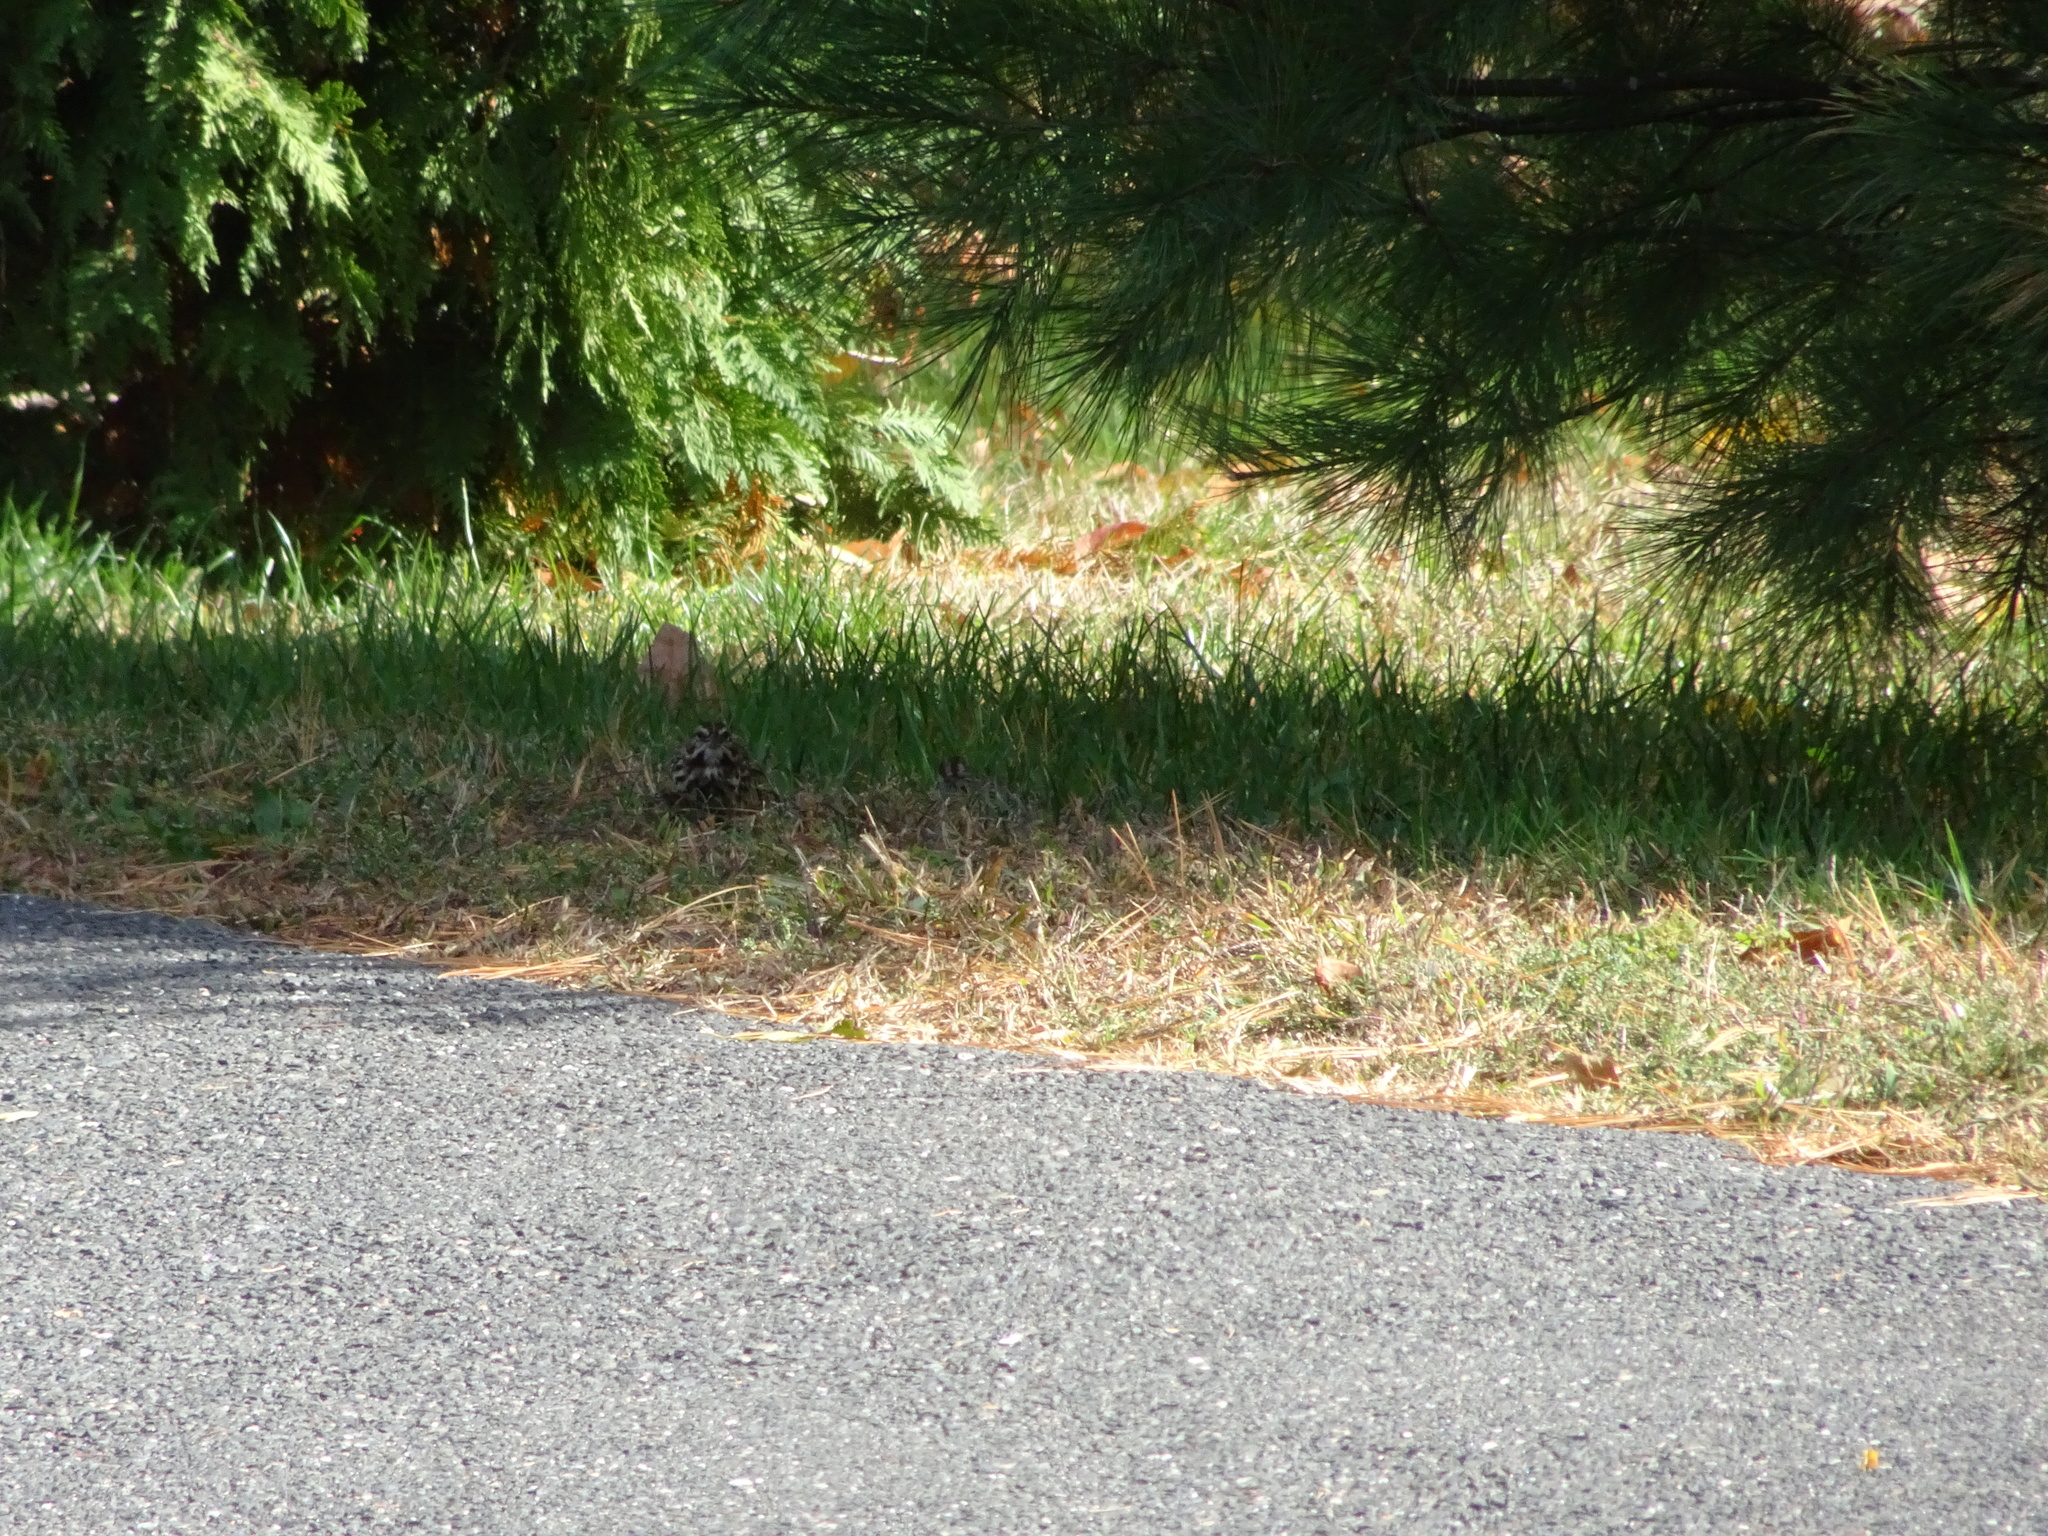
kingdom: Animalia
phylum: Chordata
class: Aves
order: Passeriformes
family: Passerellidae
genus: Melospiza
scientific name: Melospiza melodia
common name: Song sparrow
